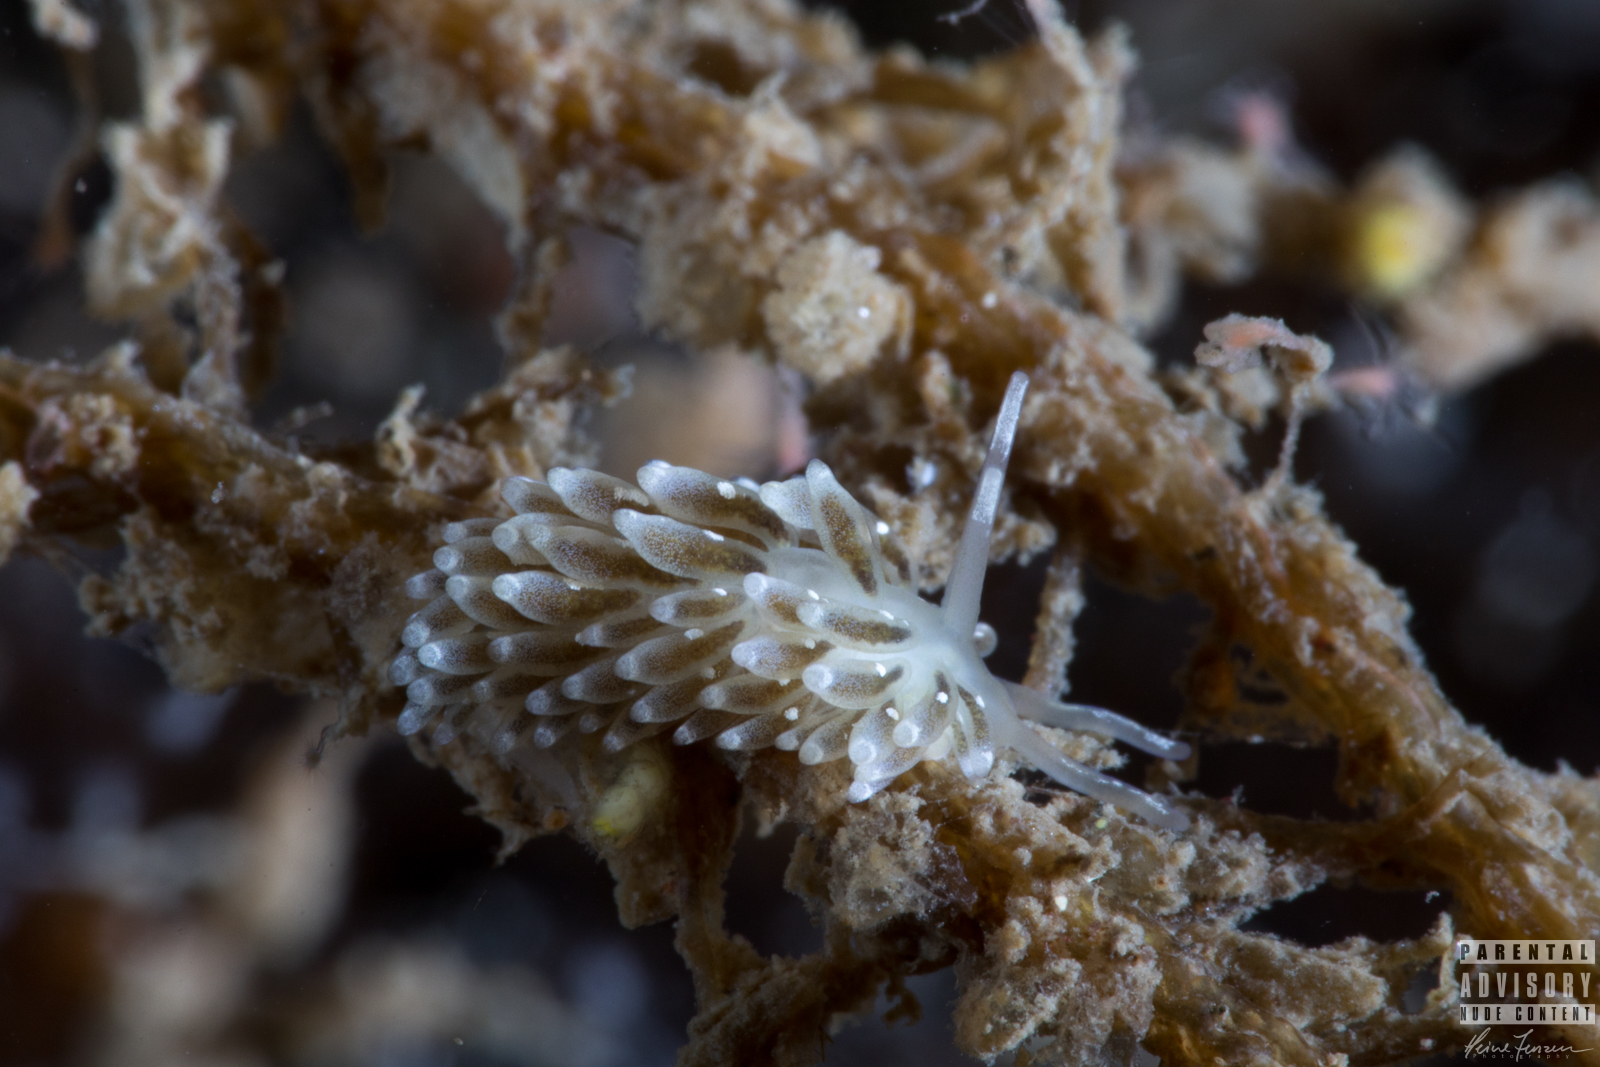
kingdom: Animalia
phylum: Mollusca
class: Gastropoda
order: Nudibranchia
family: Trinchesiidae
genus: Zelentia
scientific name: Zelentia pustulata
